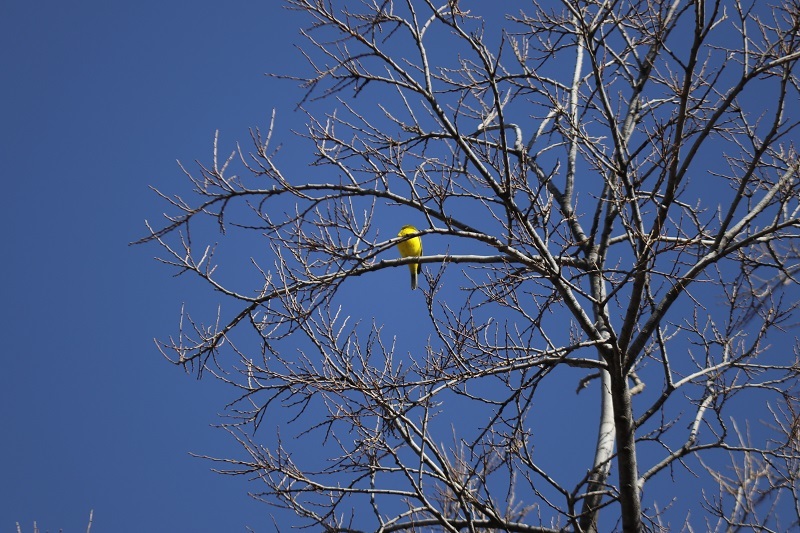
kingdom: Animalia
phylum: Chordata
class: Aves
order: Passeriformes
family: Fringillidae
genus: Crithagra
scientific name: Crithagra flaviventris
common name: Yellow canary
